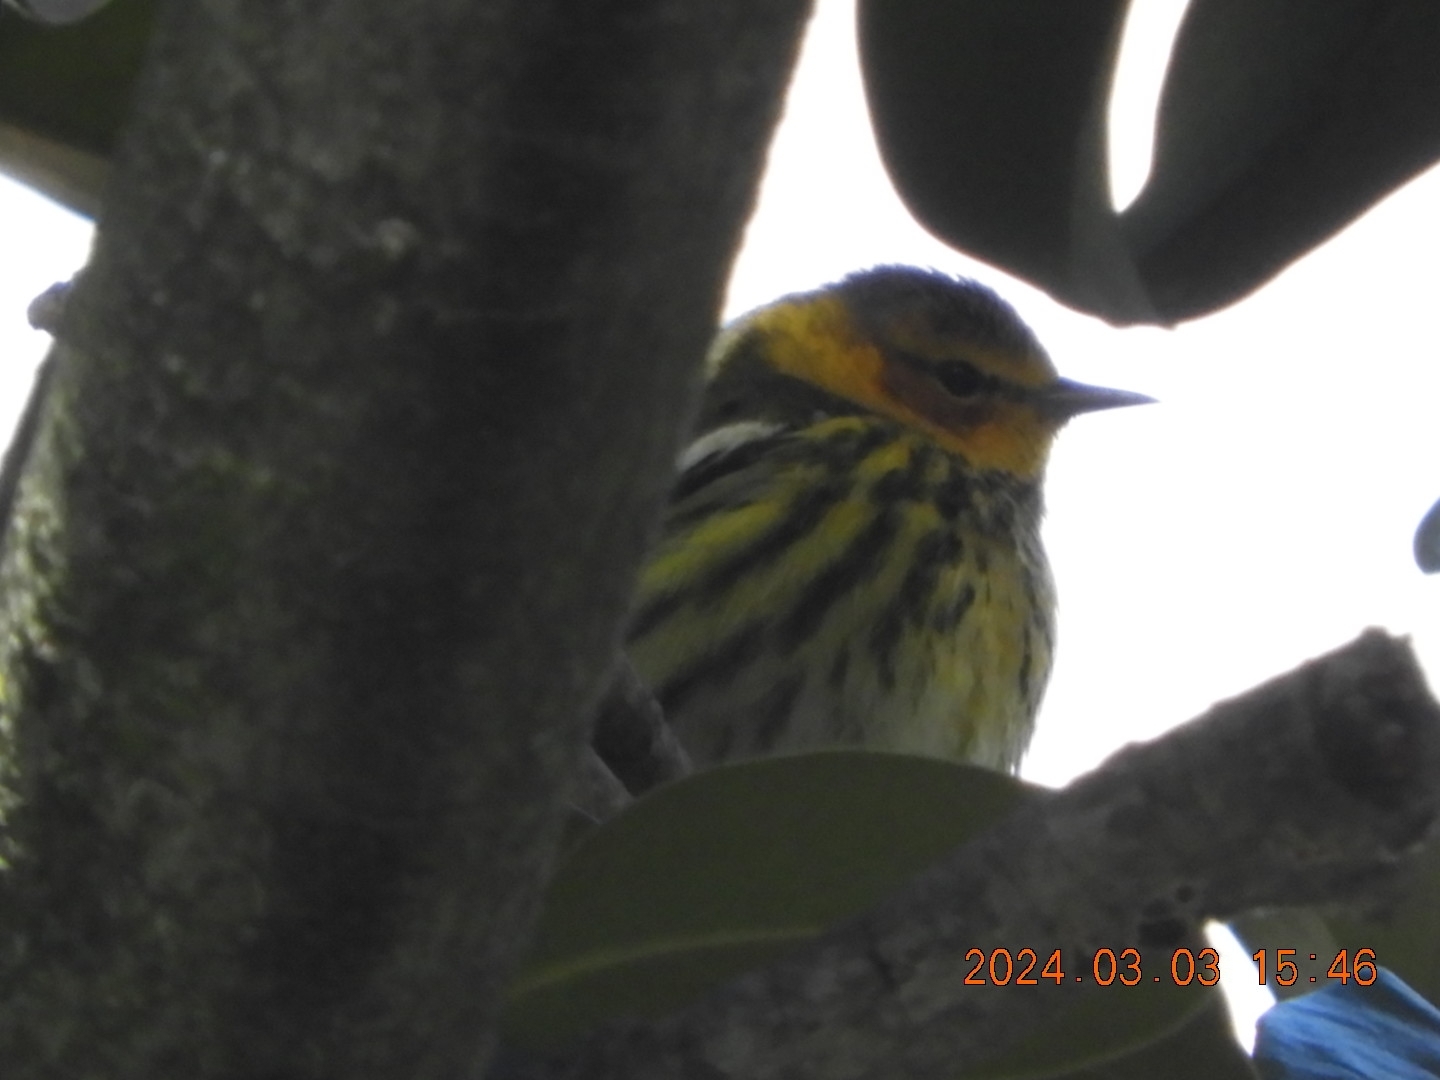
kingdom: Animalia
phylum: Chordata
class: Aves
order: Passeriformes
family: Parulidae
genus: Setophaga
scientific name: Setophaga tigrina
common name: Cape may warbler
